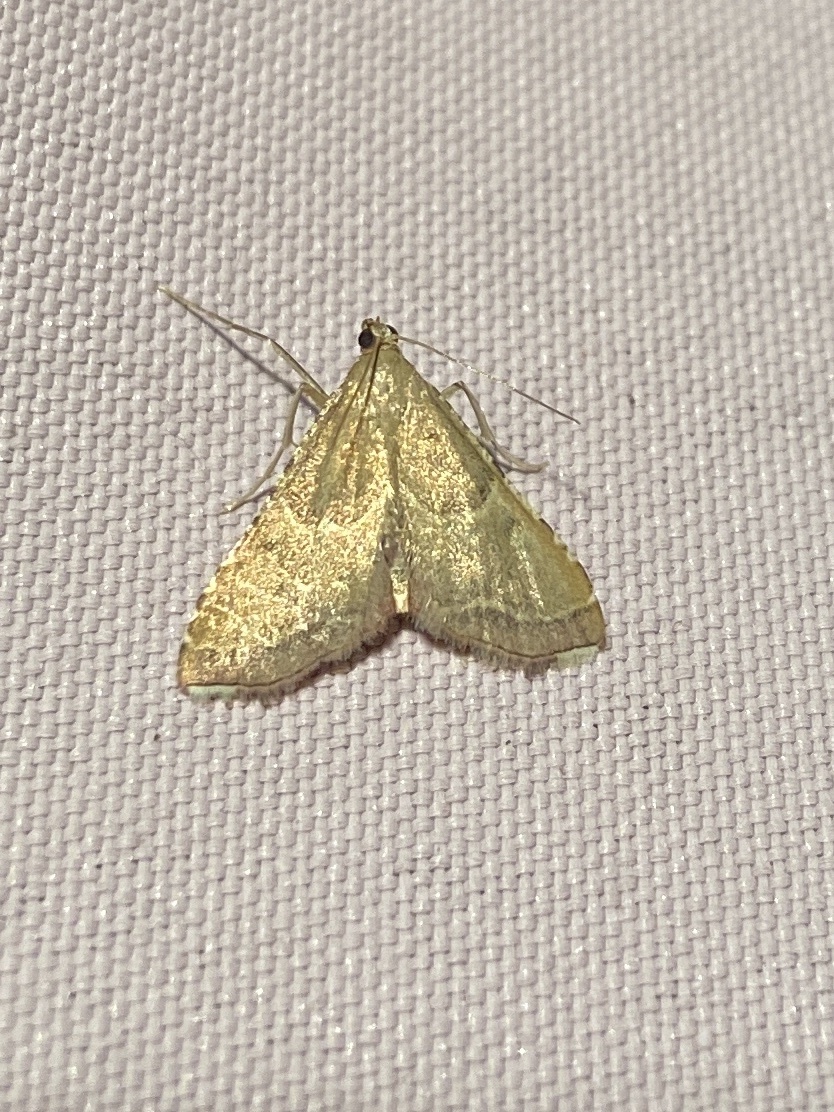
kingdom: Animalia
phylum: Arthropoda
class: Insecta
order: Lepidoptera
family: Pyralidae
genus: Endotricha
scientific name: Endotricha flammealis
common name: Rosy tabby
